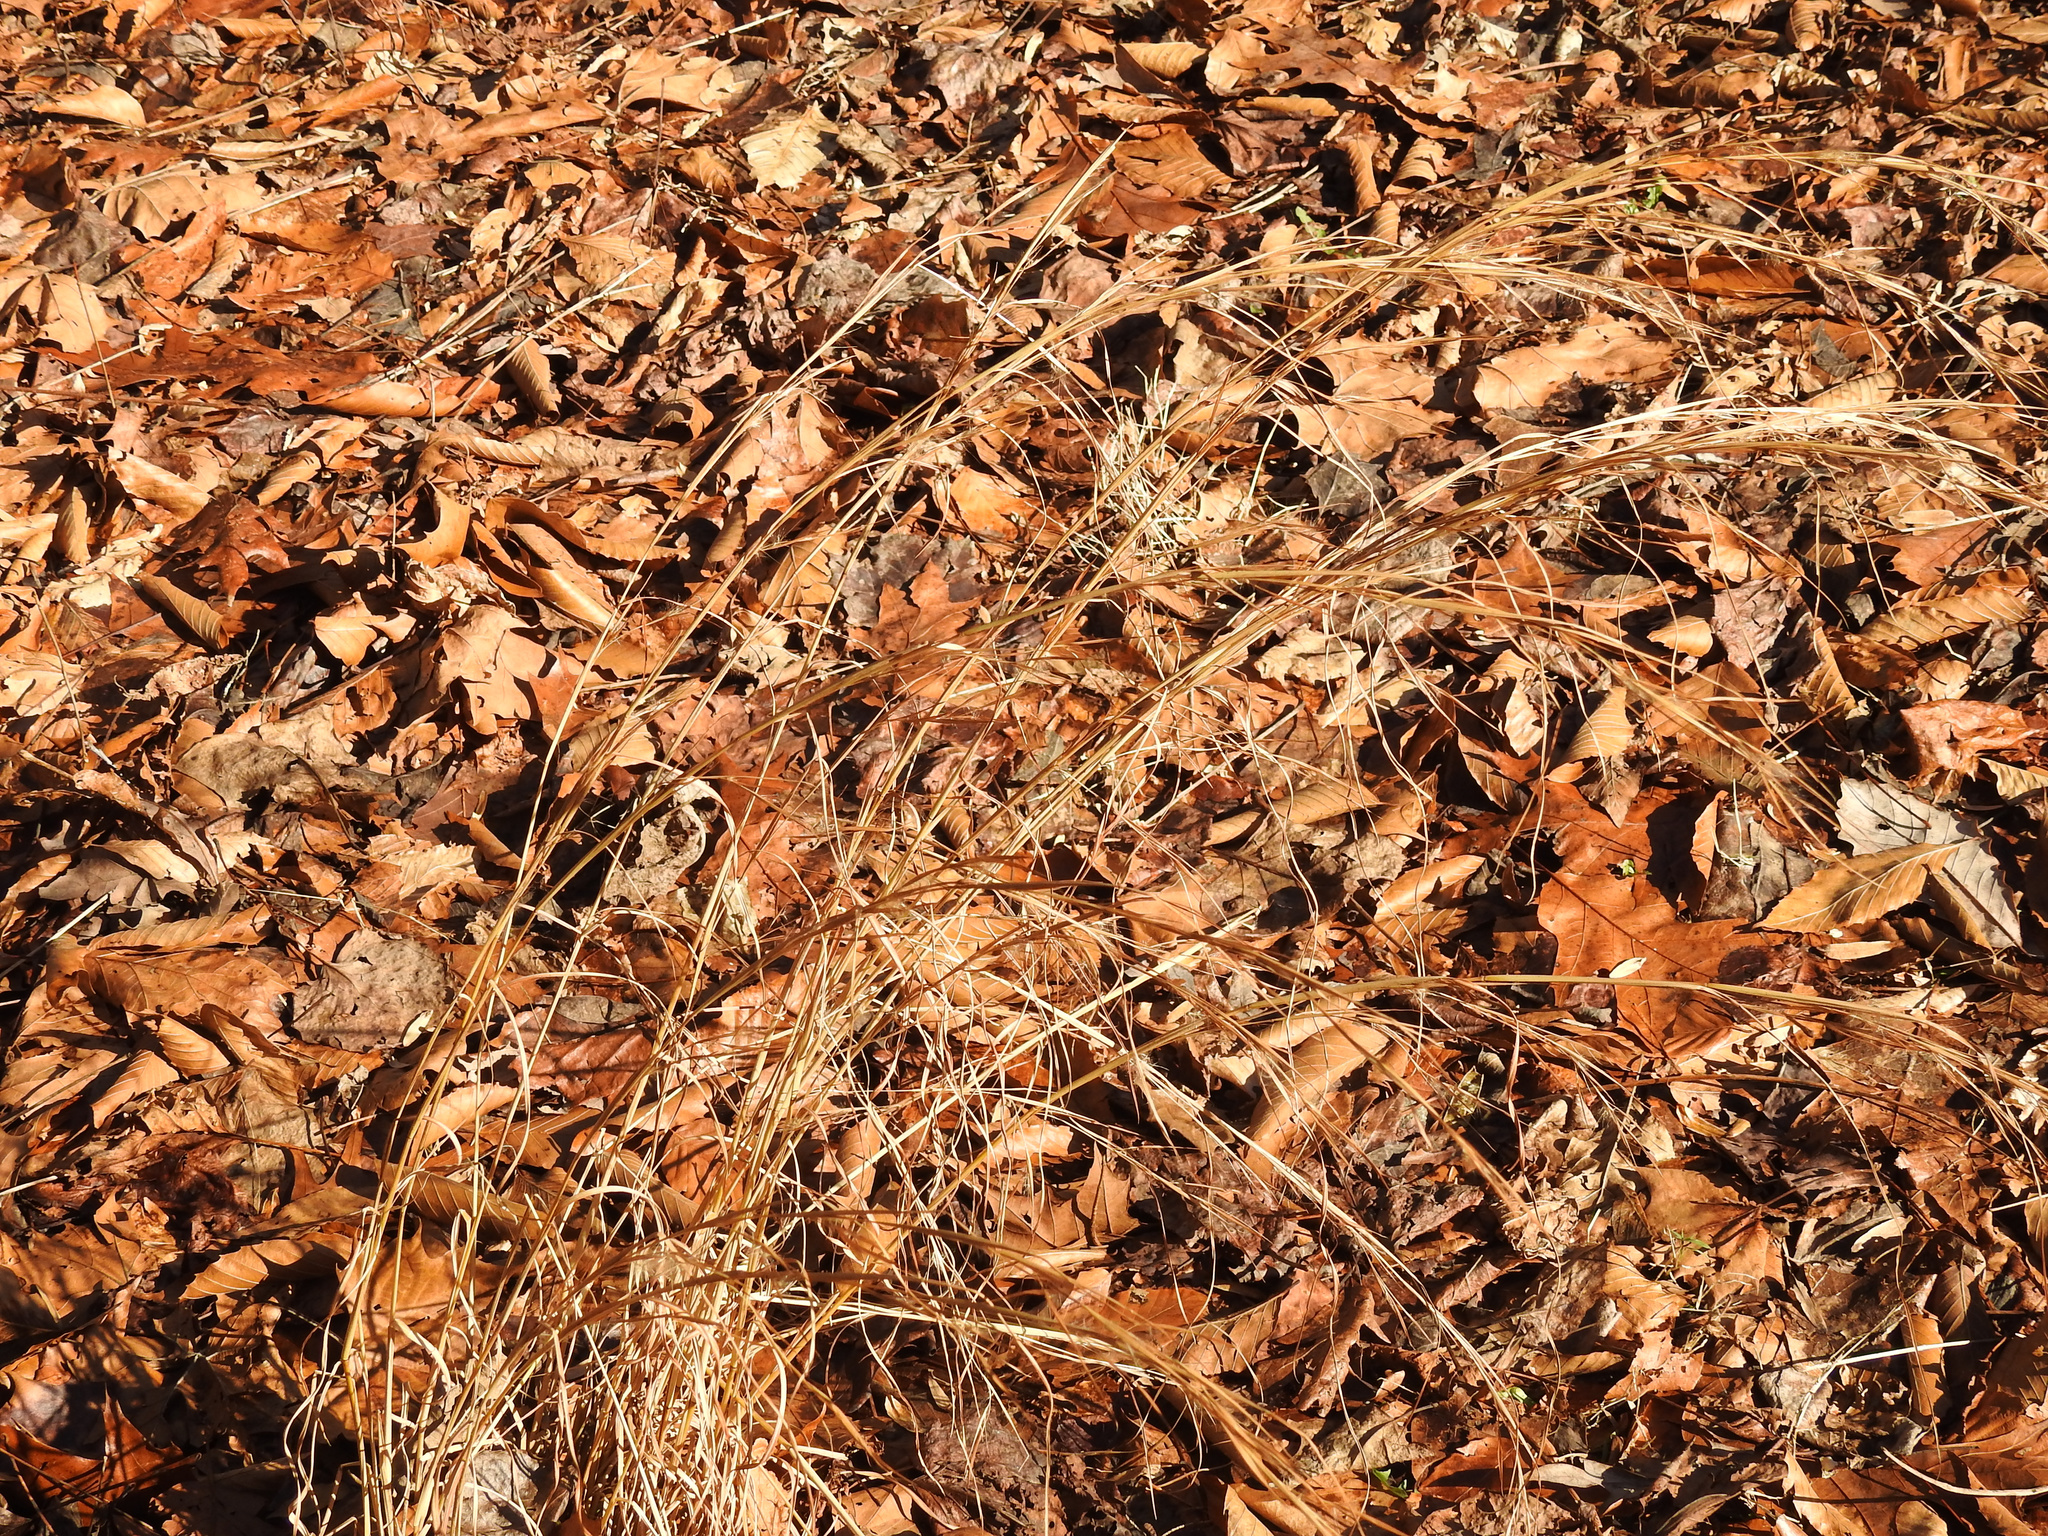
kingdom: Plantae
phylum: Tracheophyta
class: Liliopsida
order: Poales
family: Poaceae
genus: Andropogon
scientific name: Andropogon virginicus
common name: Broomsedge bluestem
